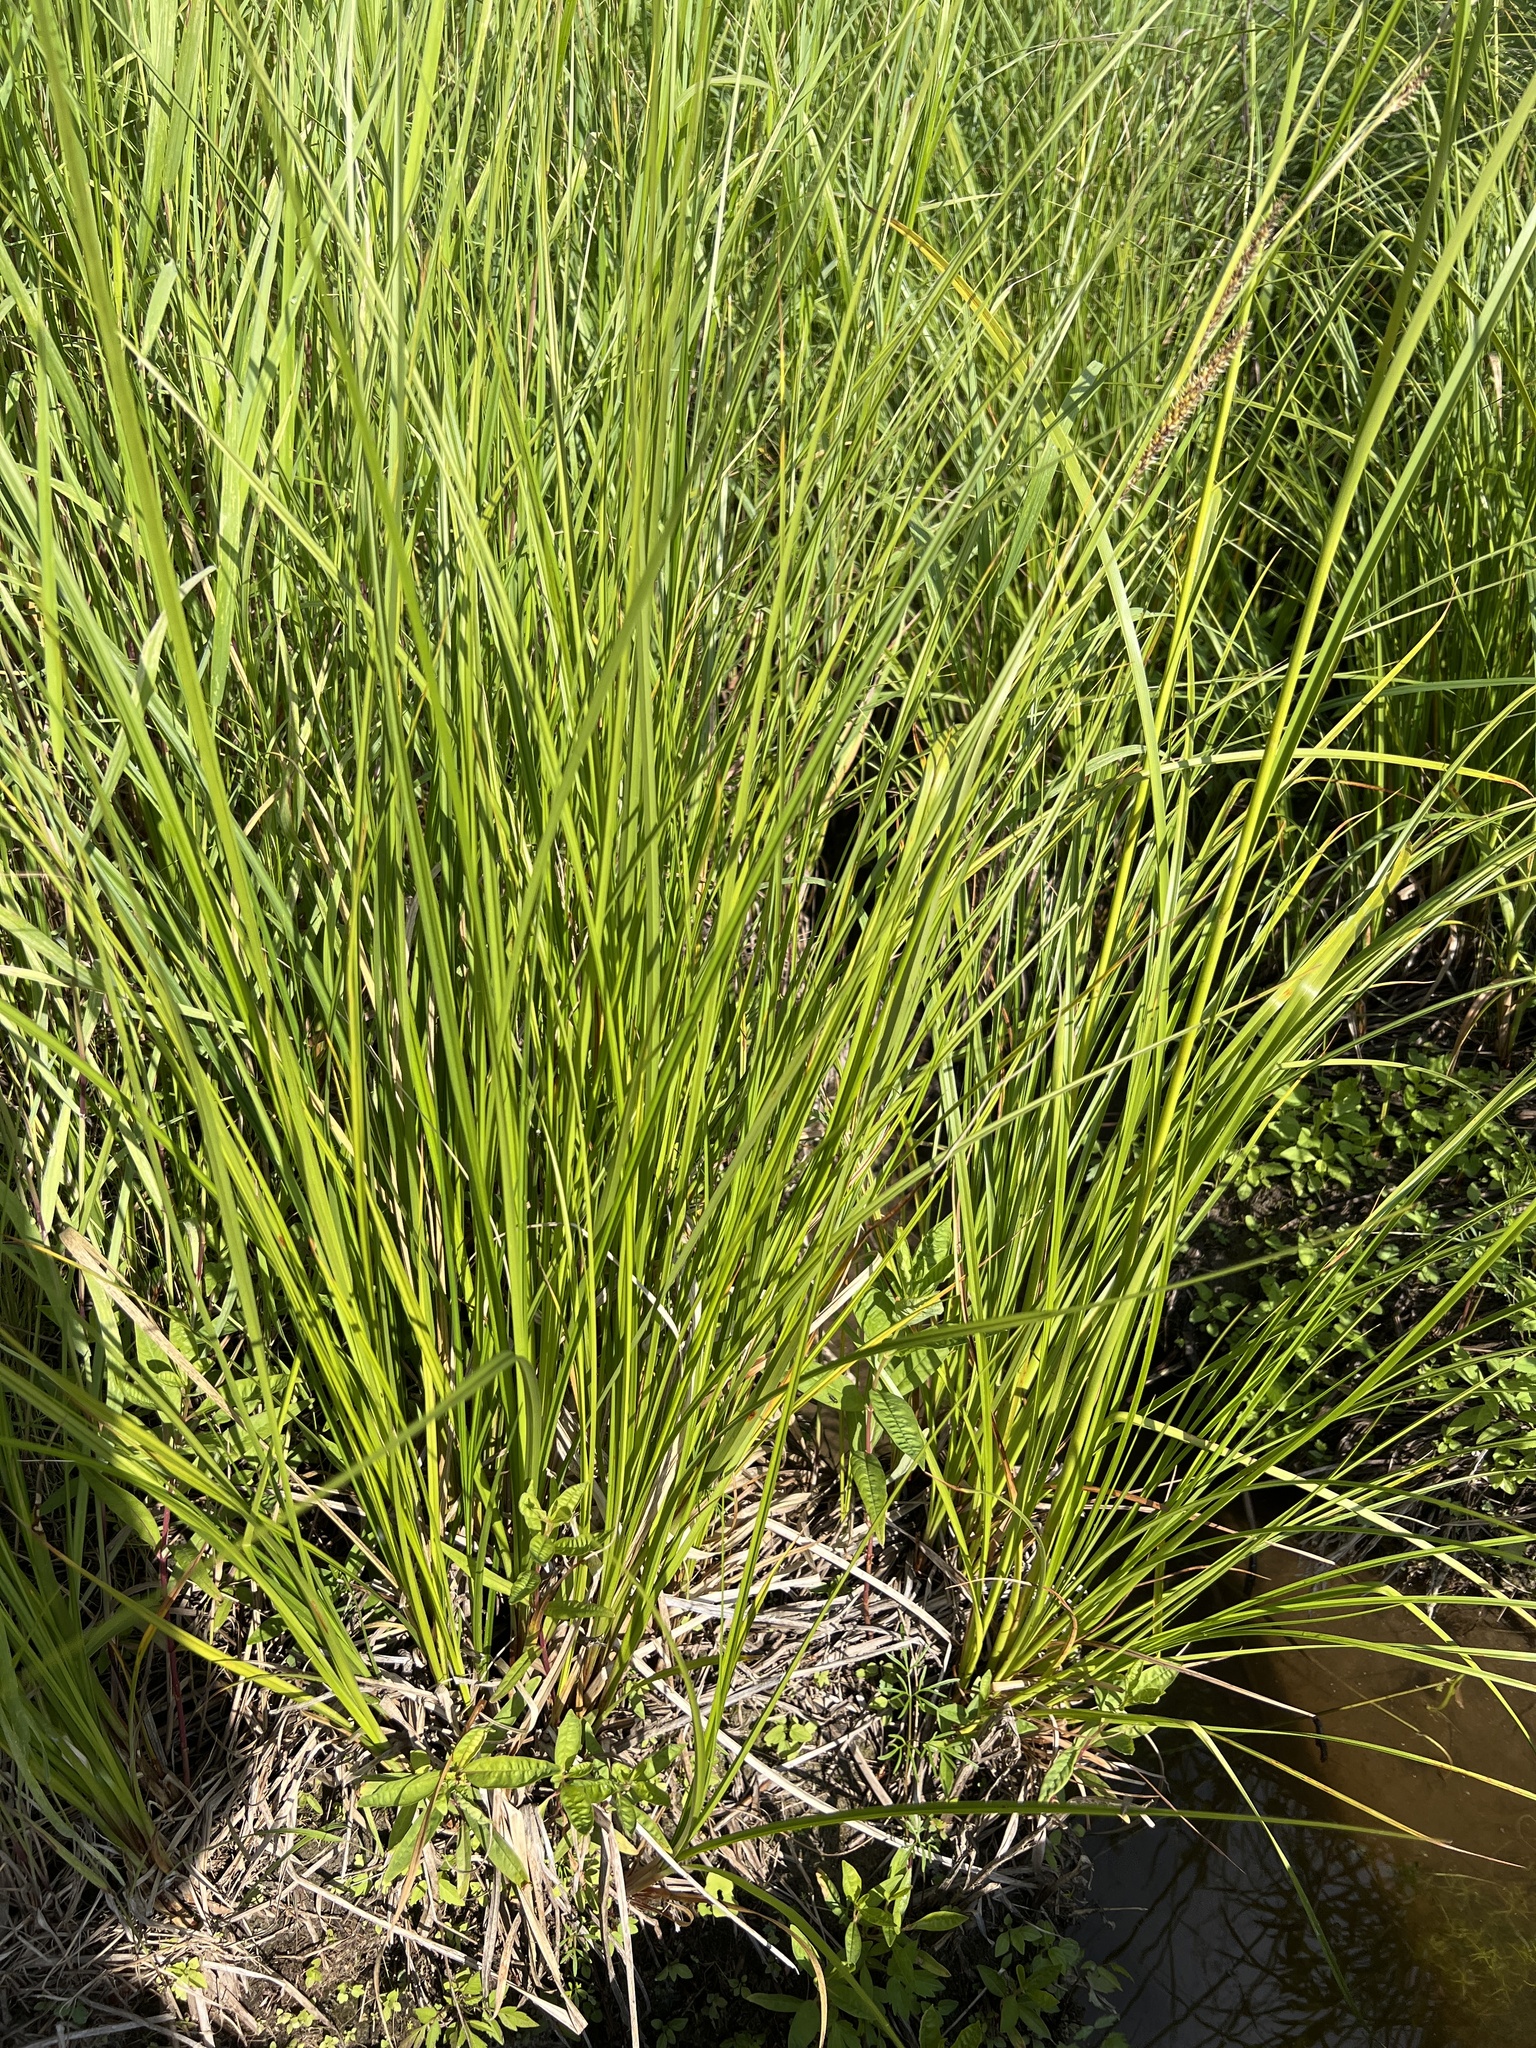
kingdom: Plantae
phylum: Tracheophyta
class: Liliopsida
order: Poales
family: Cyperaceae
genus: Carex
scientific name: Carex utriculata
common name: Beaked sedge
